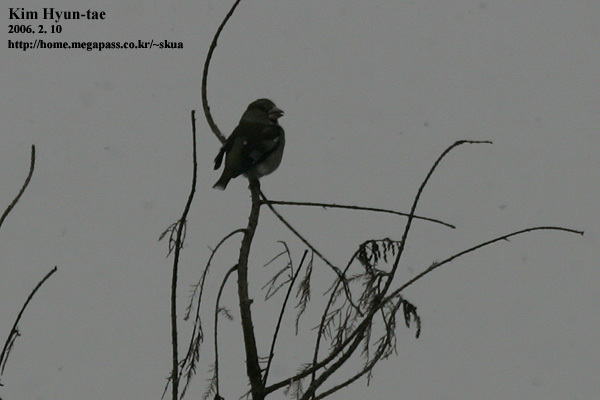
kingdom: Animalia
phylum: Chordata
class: Aves
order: Passeriformes
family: Fringillidae
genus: Coccothraustes
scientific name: Coccothraustes coccothraustes
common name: Hawfinch
